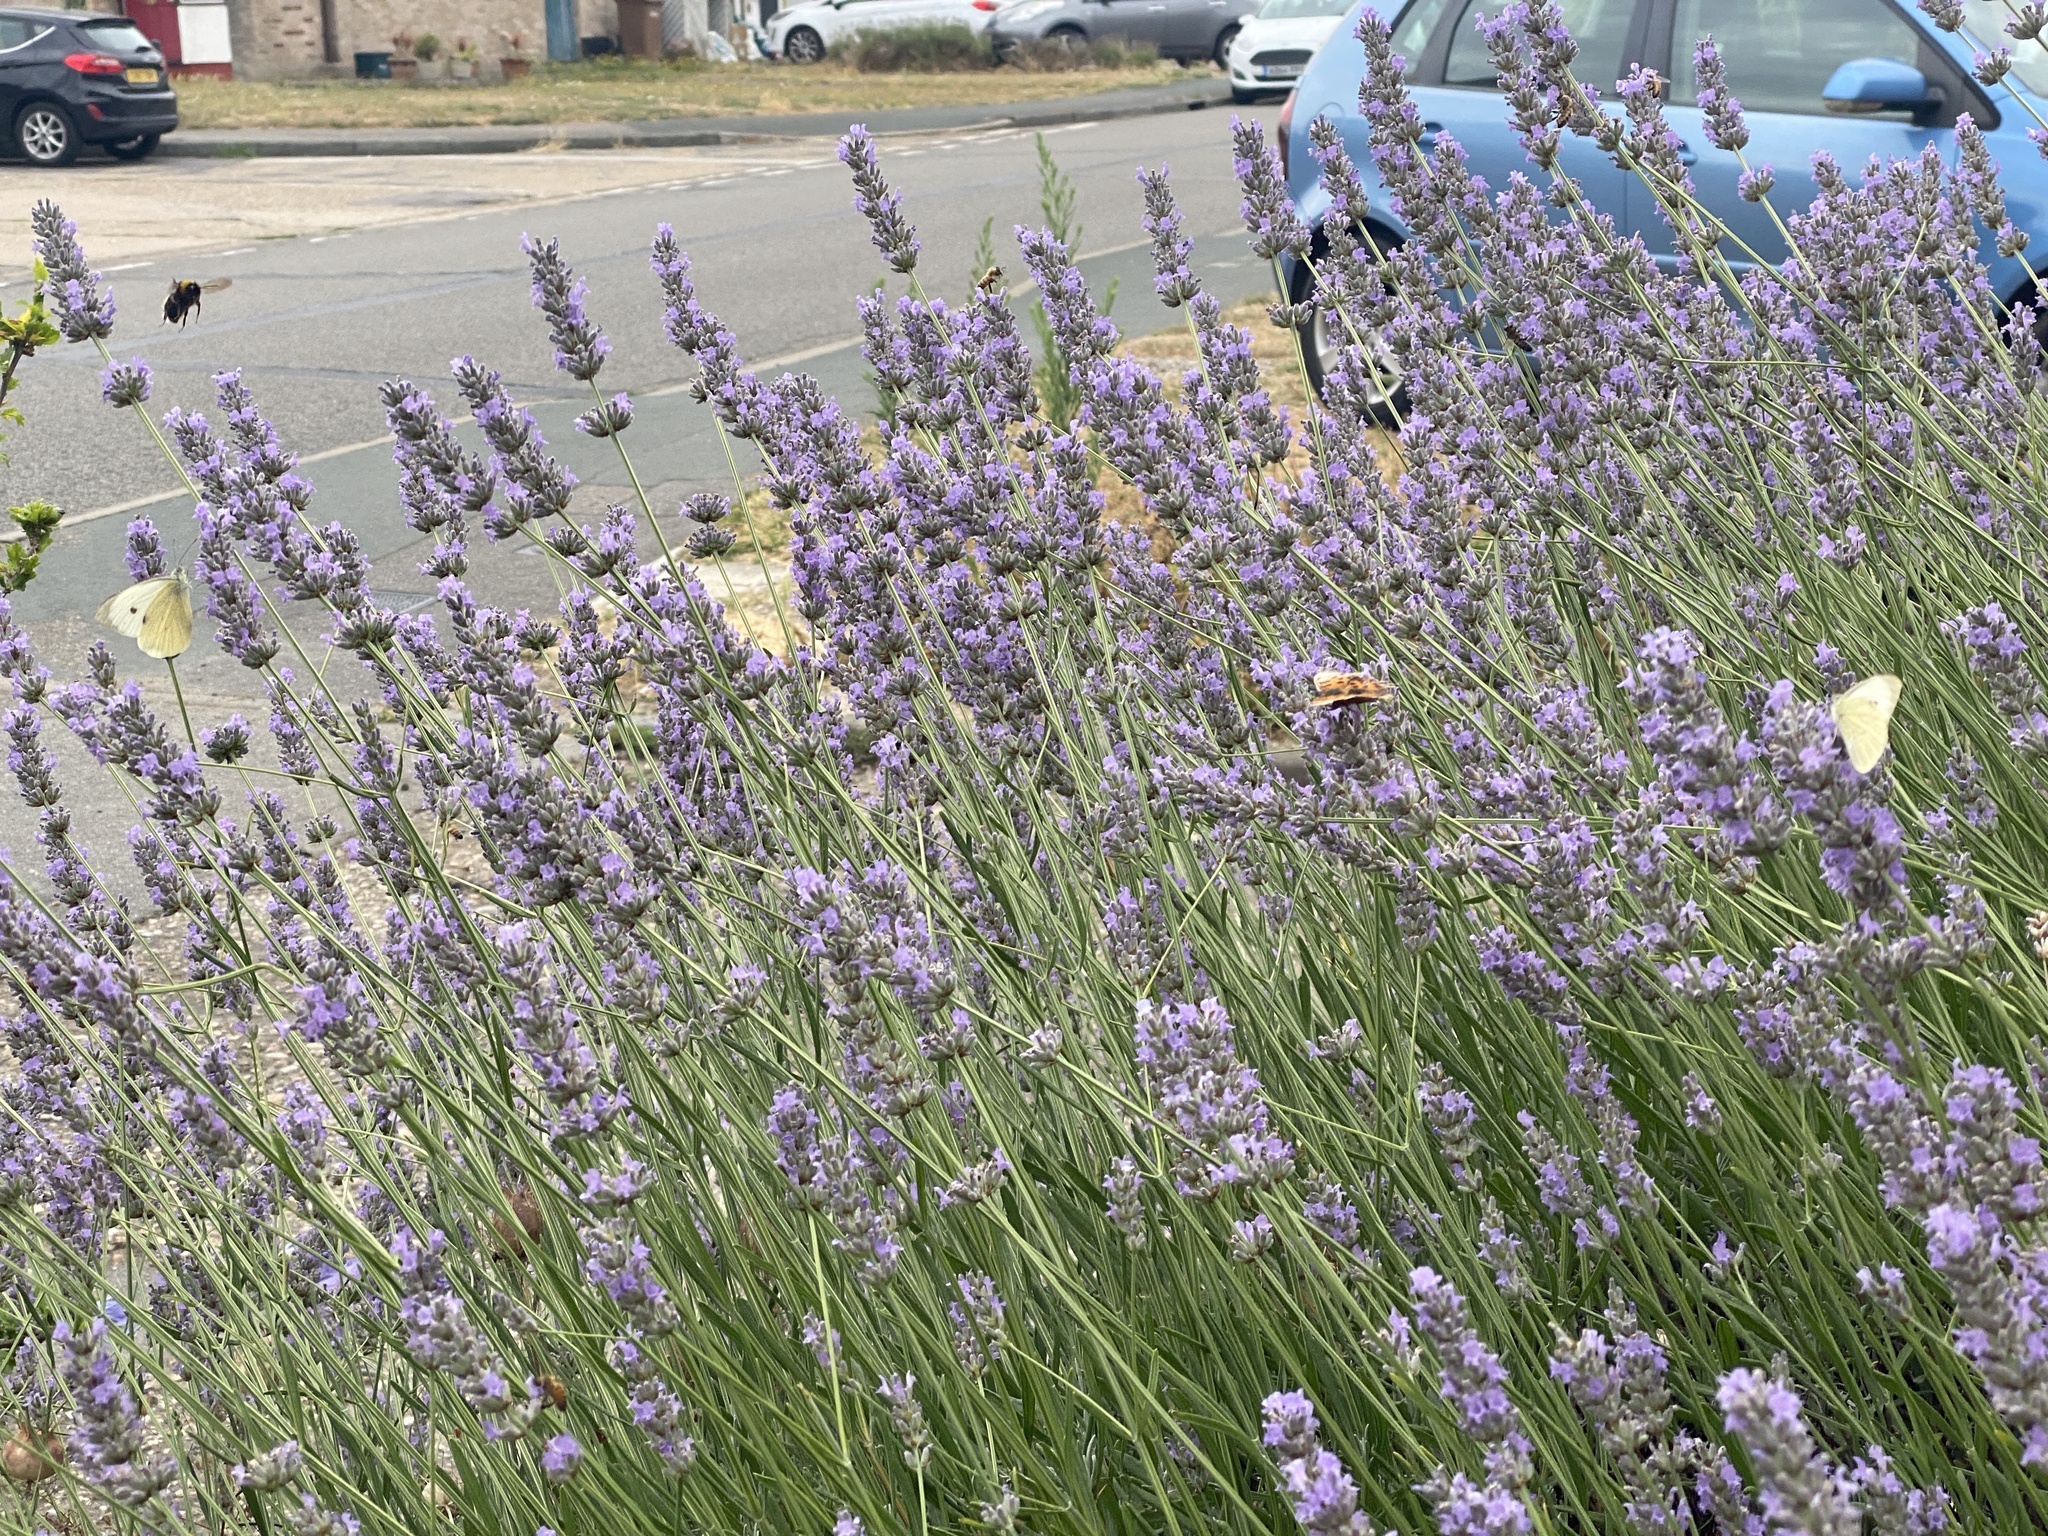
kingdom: Animalia
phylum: Arthropoda
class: Insecta
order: Lepidoptera
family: Pieridae
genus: Pieris
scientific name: Pieris brassicae
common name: Large white
